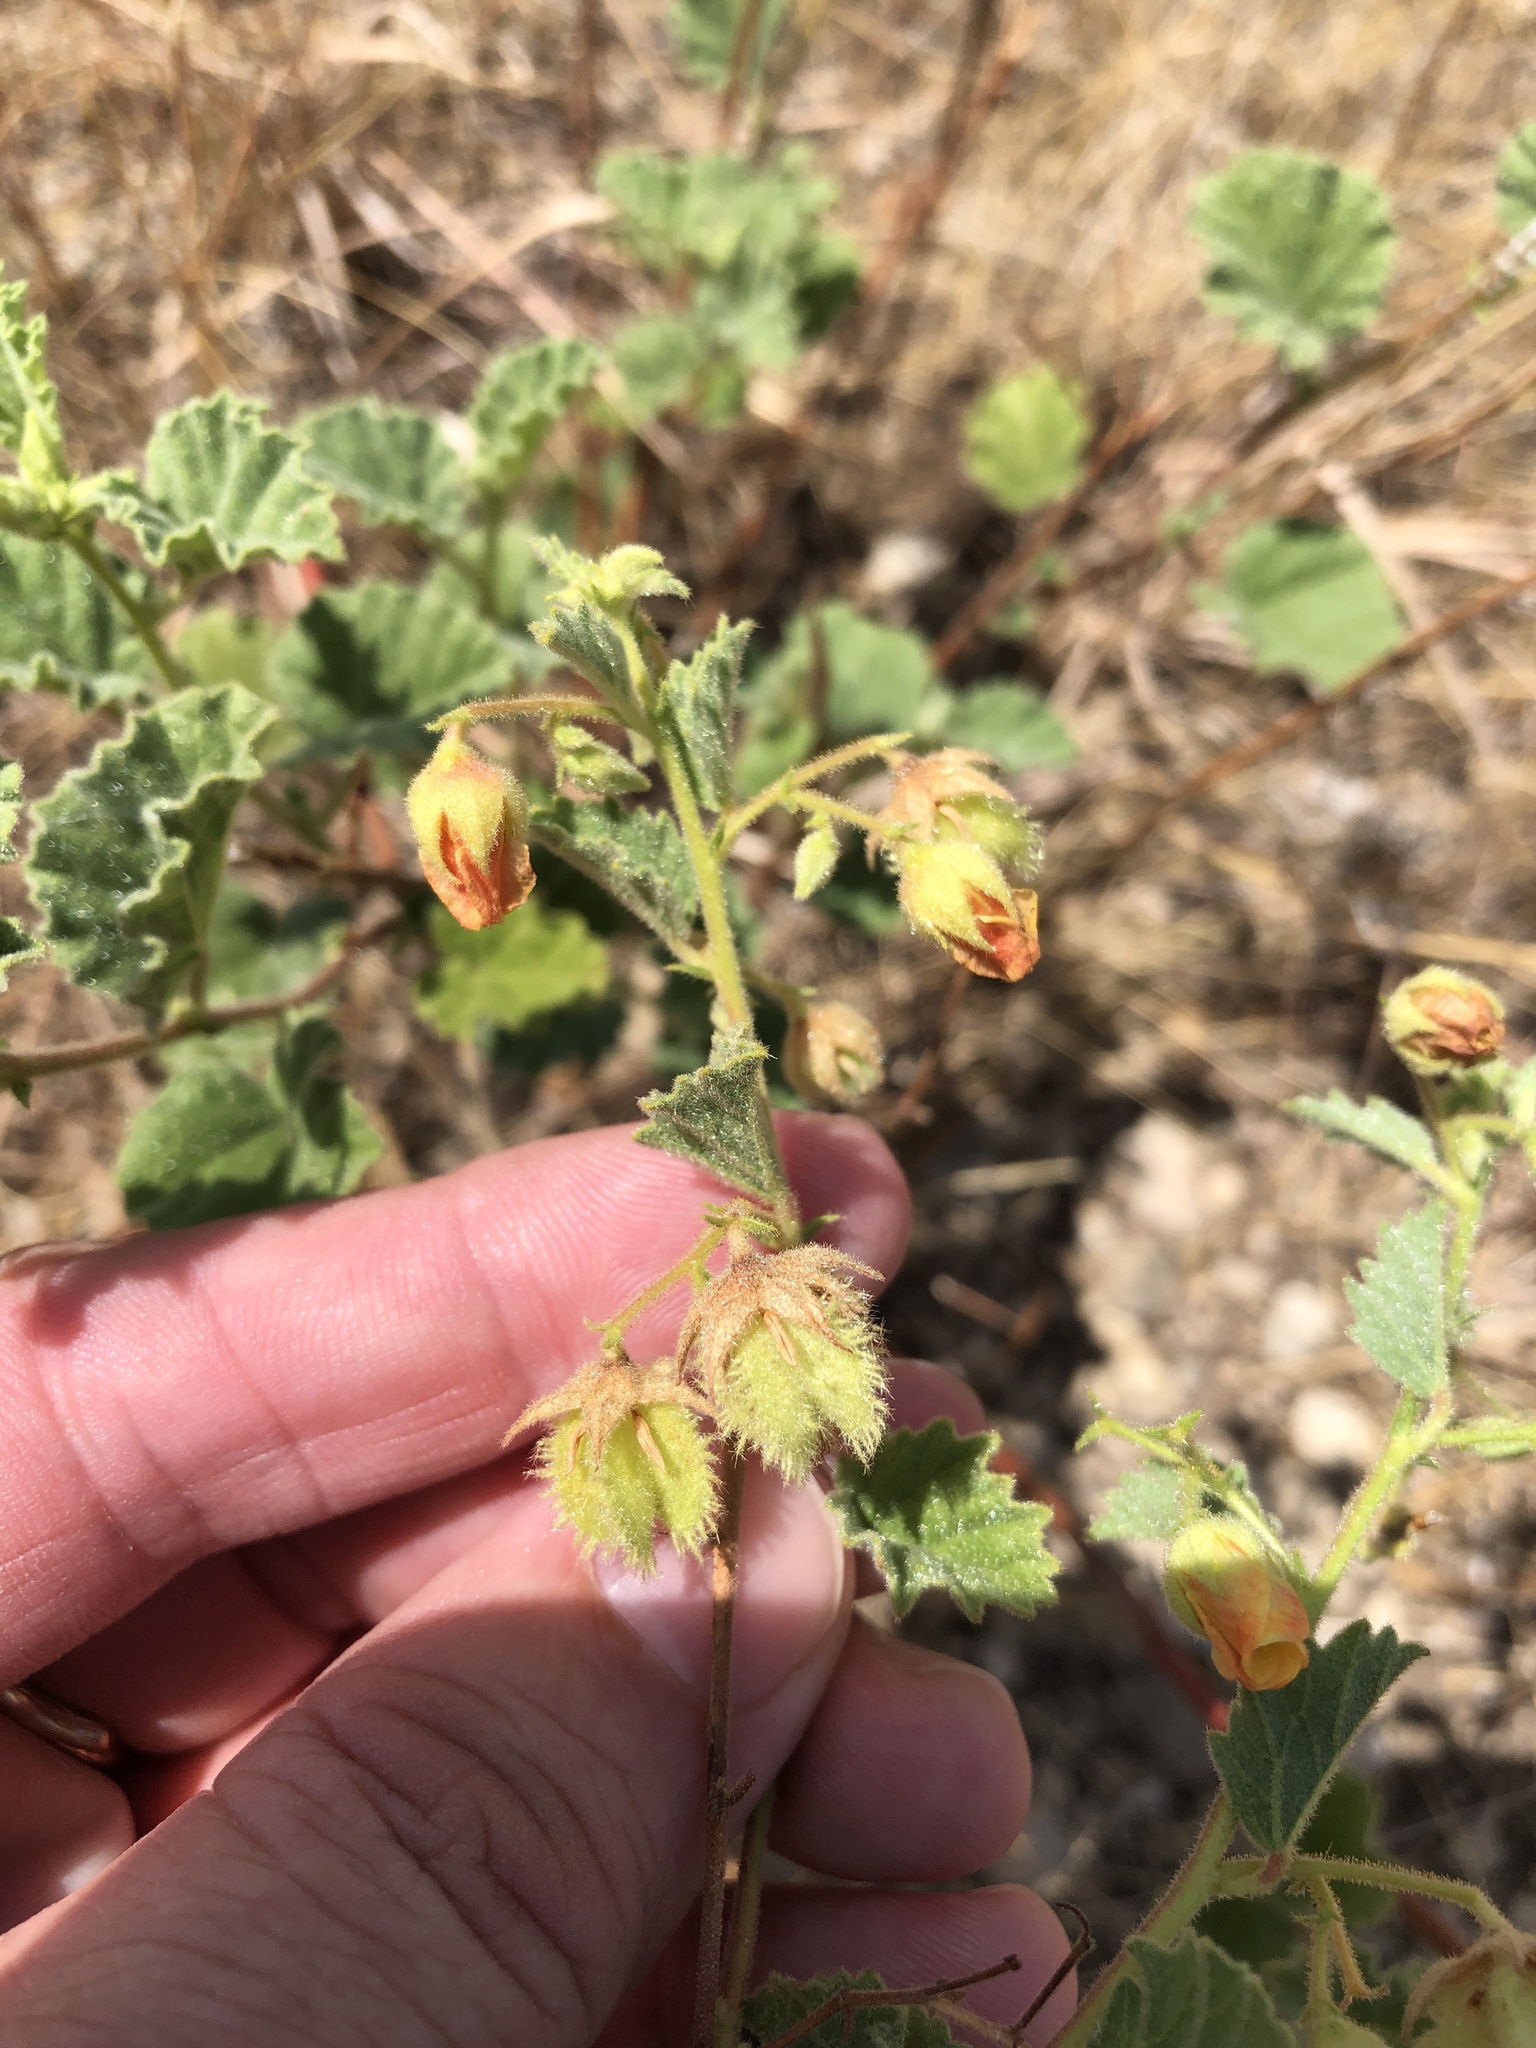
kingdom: Plantae
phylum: Tracheophyta
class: Magnoliopsida
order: Malvales
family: Malvaceae
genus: Hermannia
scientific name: Hermannia texana
